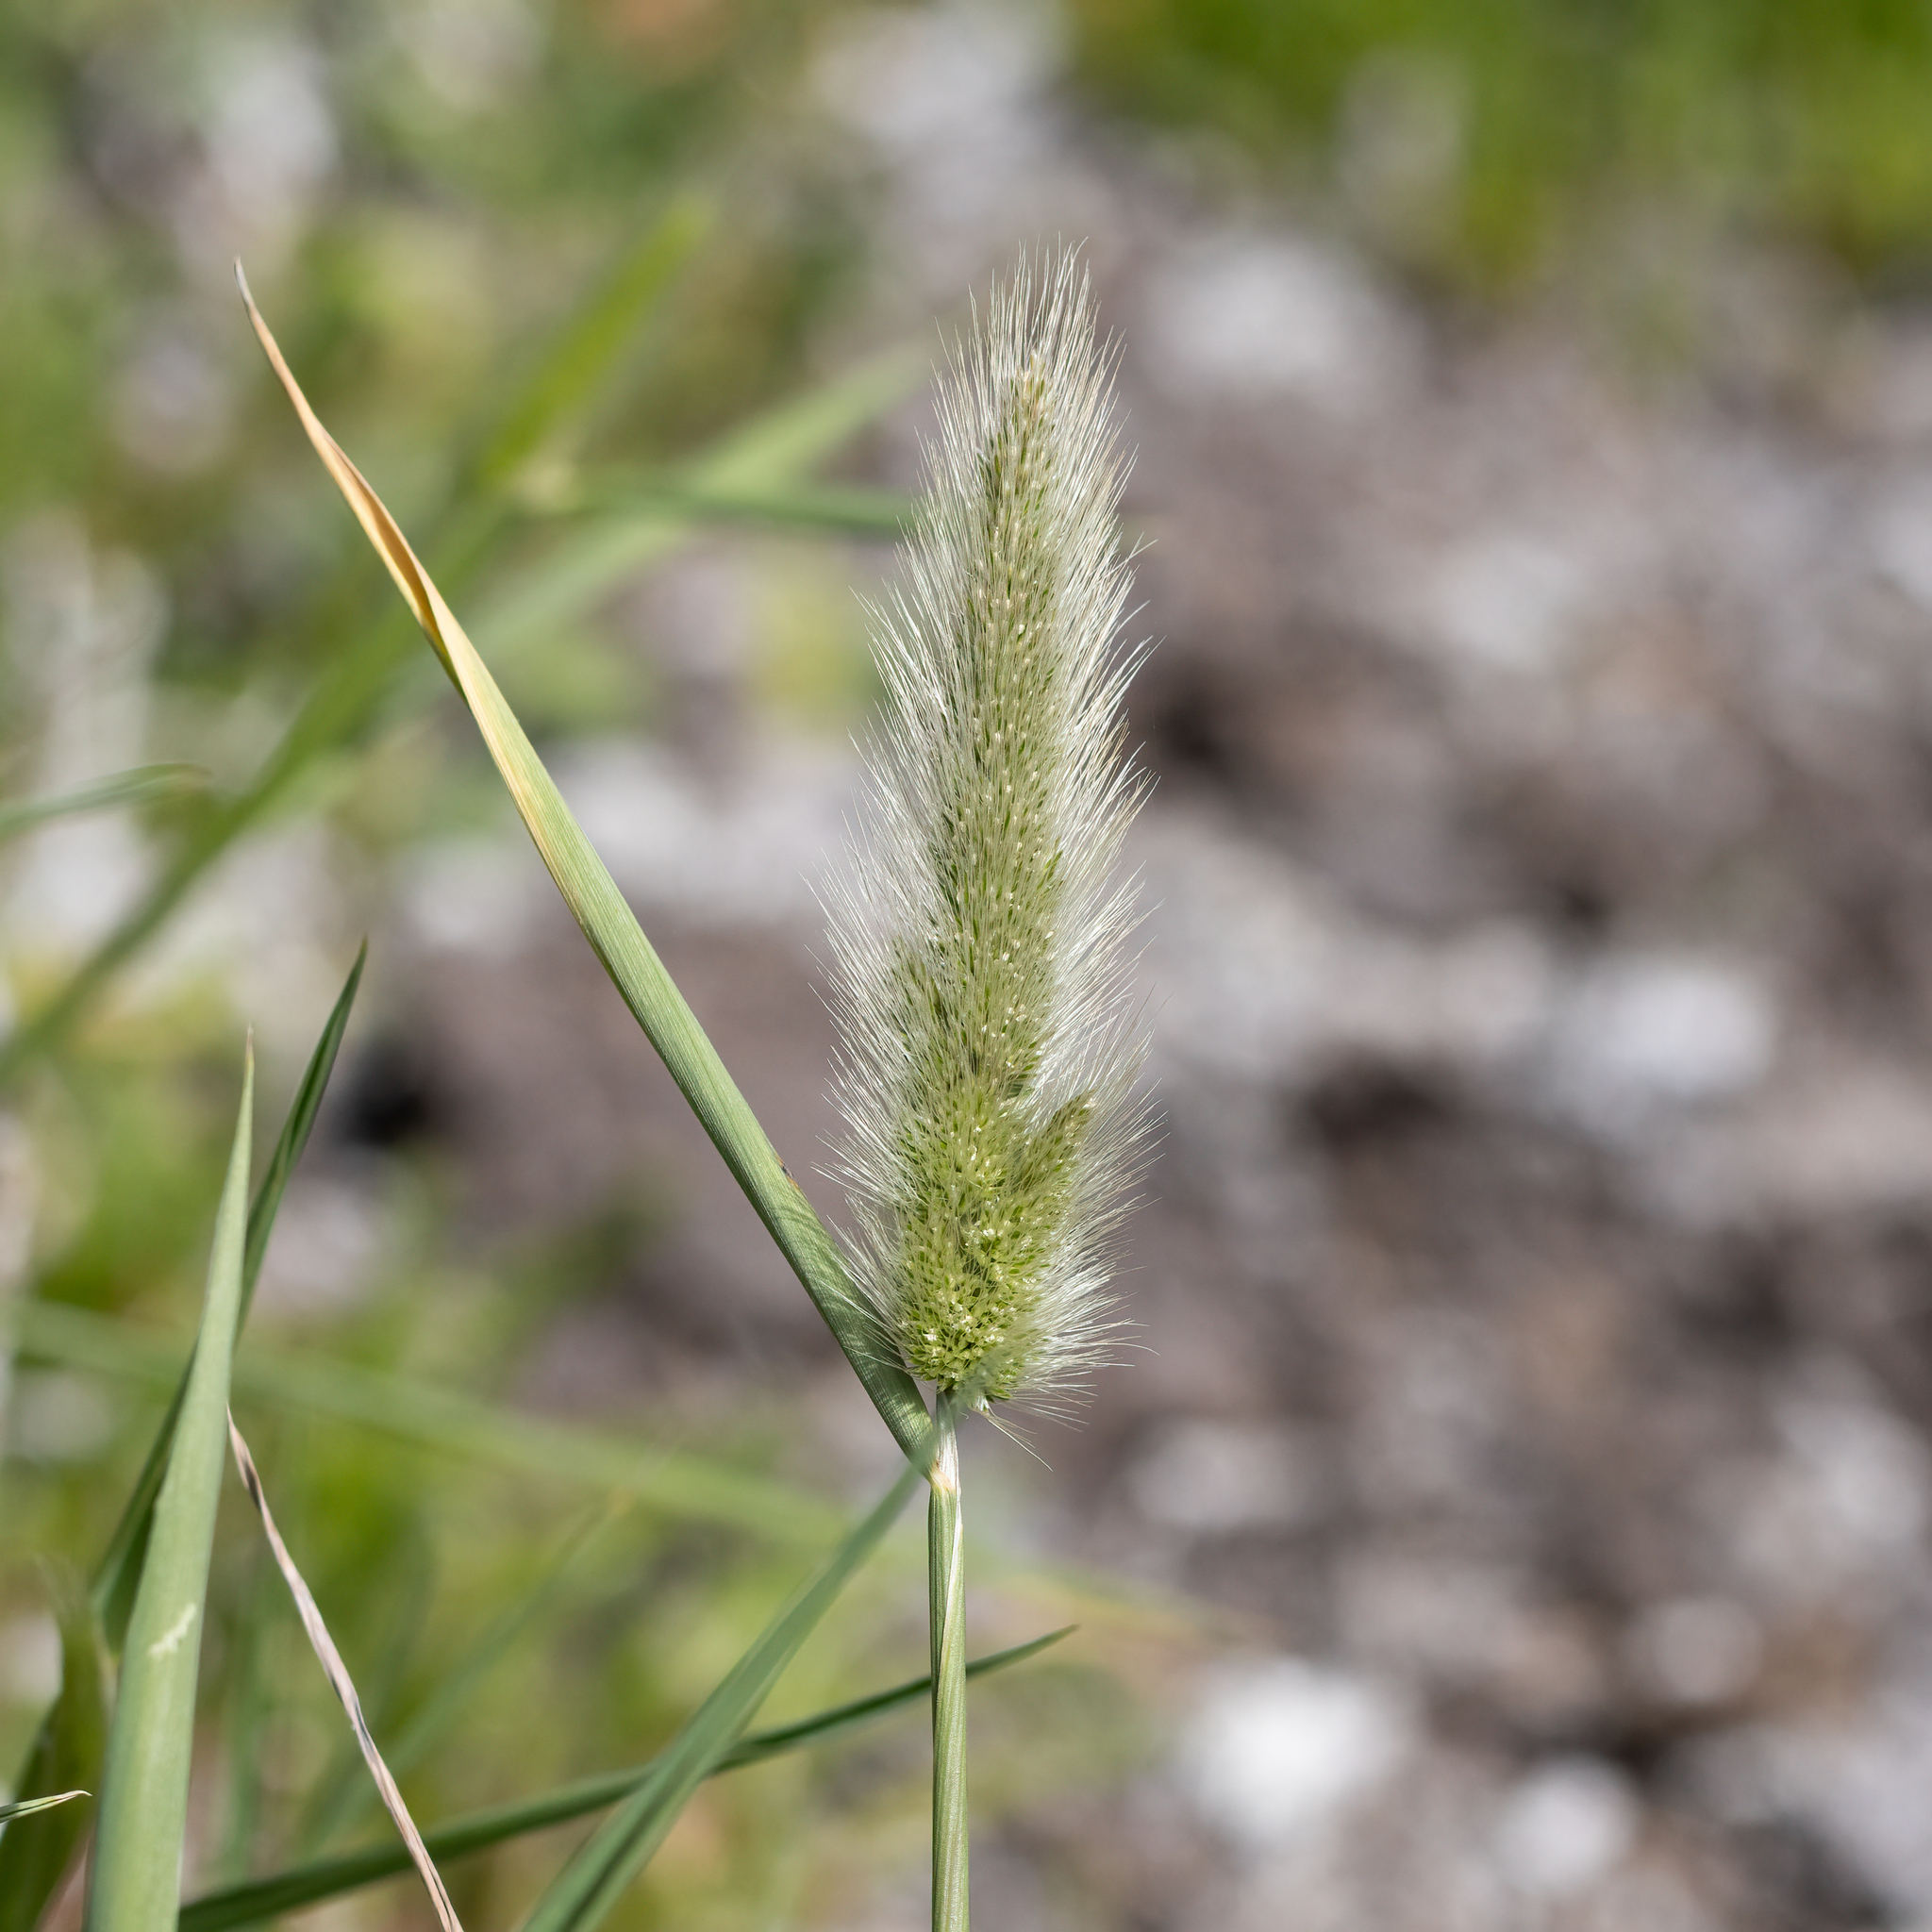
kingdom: Plantae
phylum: Tracheophyta
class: Liliopsida
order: Poales
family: Poaceae
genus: Polypogon
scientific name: Polypogon monspeliensis
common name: Annual rabbitsfoot grass
